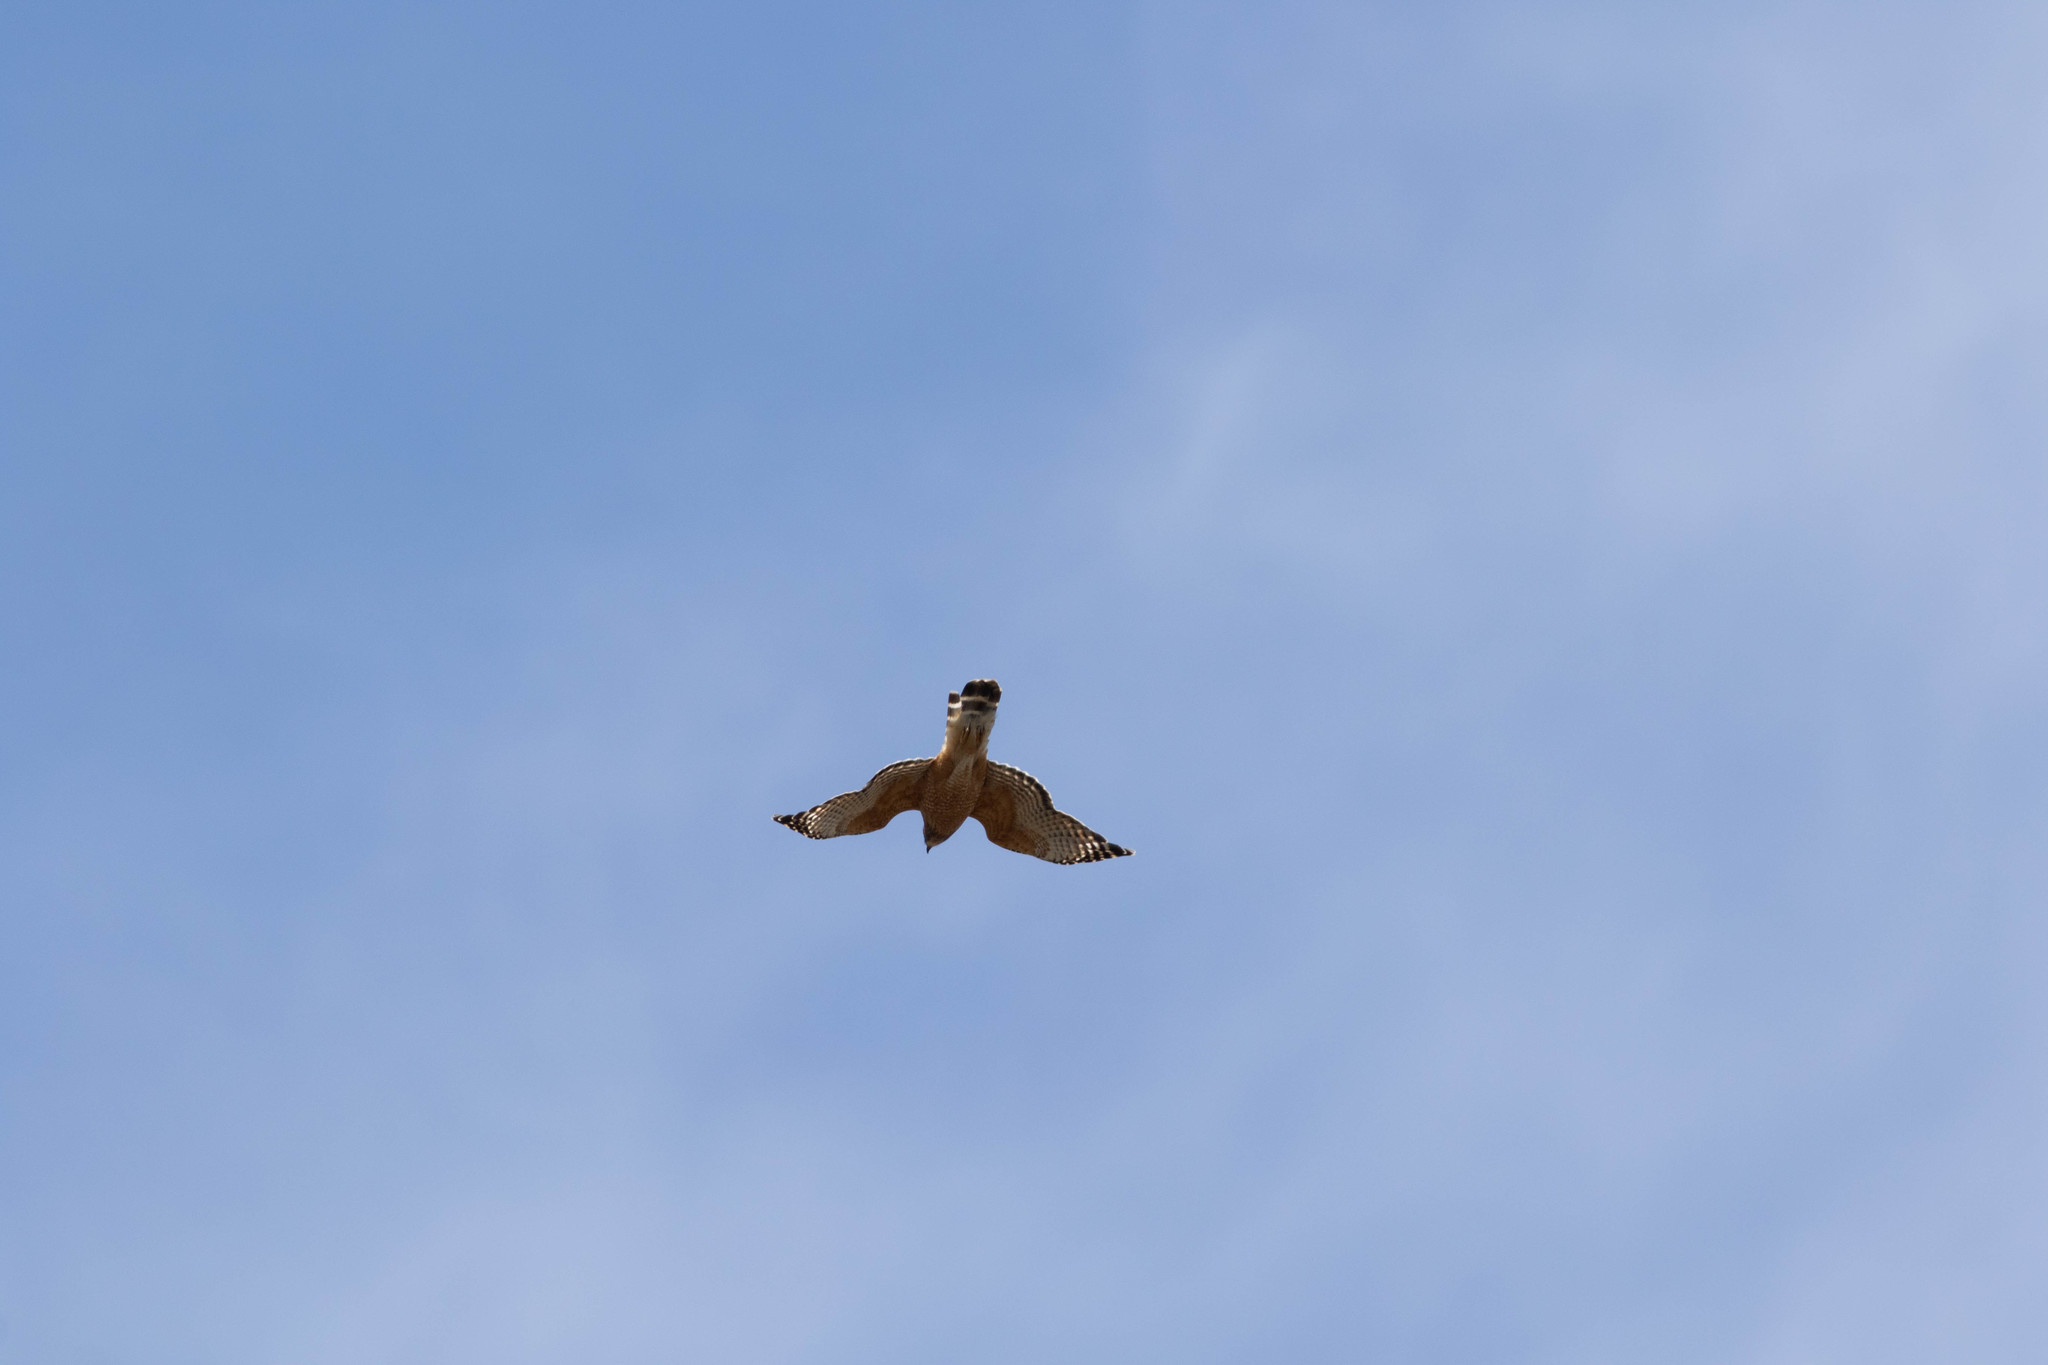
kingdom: Animalia
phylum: Chordata
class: Aves
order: Accipitriformes
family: Accipitridae
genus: Buteo
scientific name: Buteo lineatus
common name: Red-shouldered hawk
